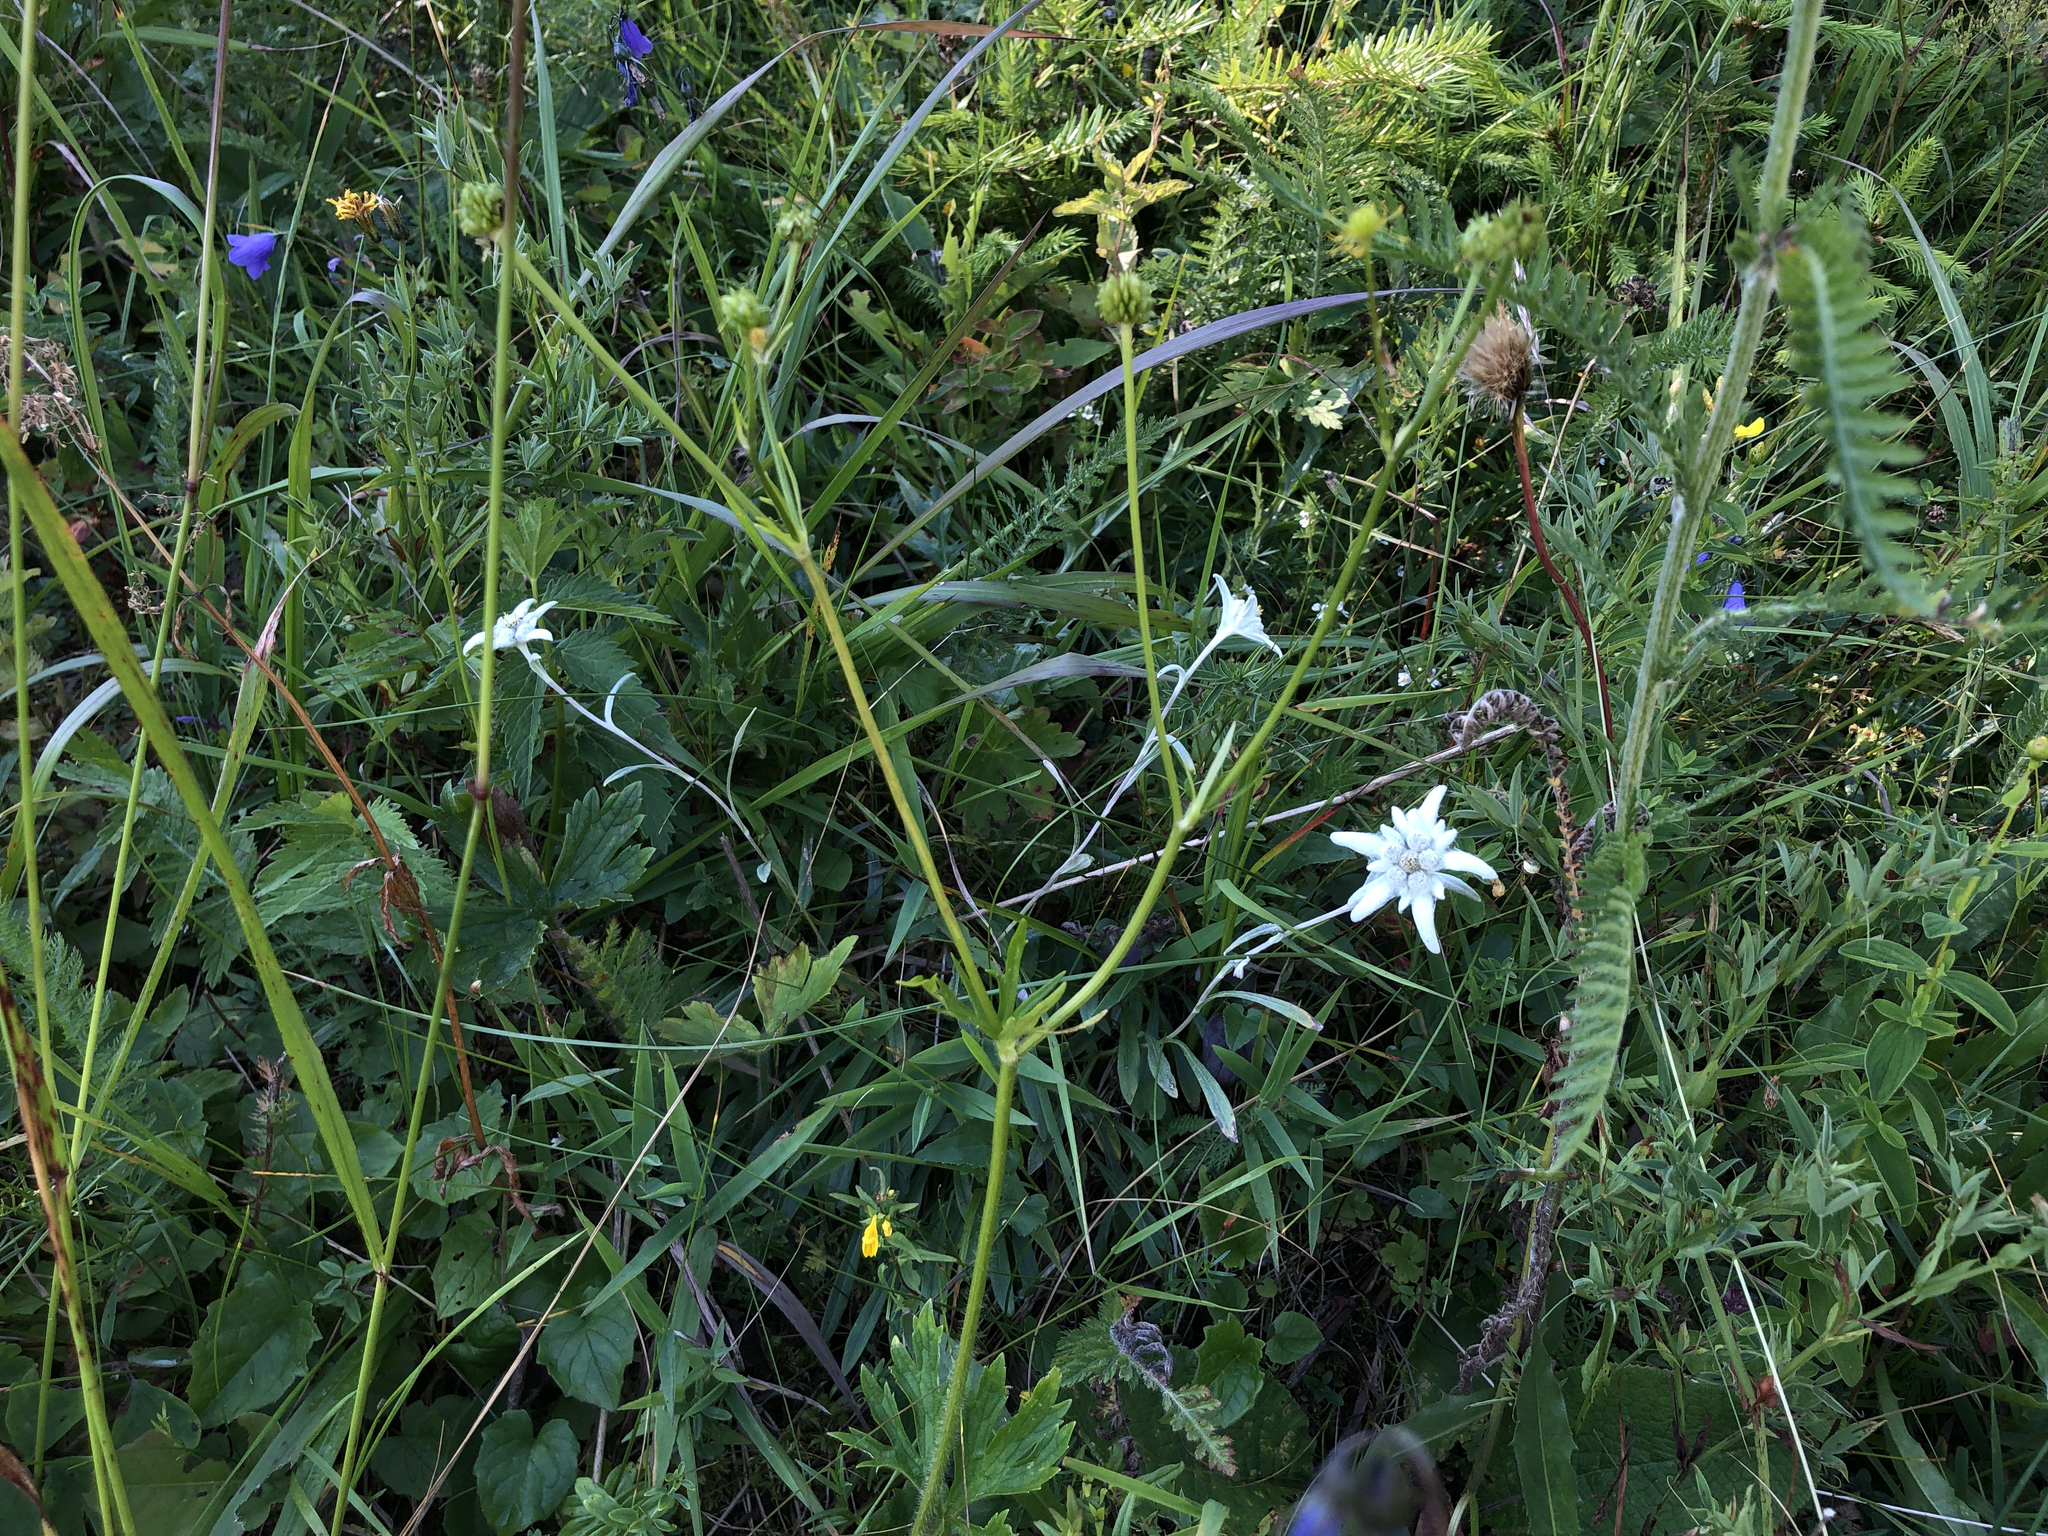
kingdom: Plantae
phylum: Tracheophyta
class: Magnoliopsida
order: Asterales
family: Asteraceae
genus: Leontopodium
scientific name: Leontopodium nivale
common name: Edelweiss
